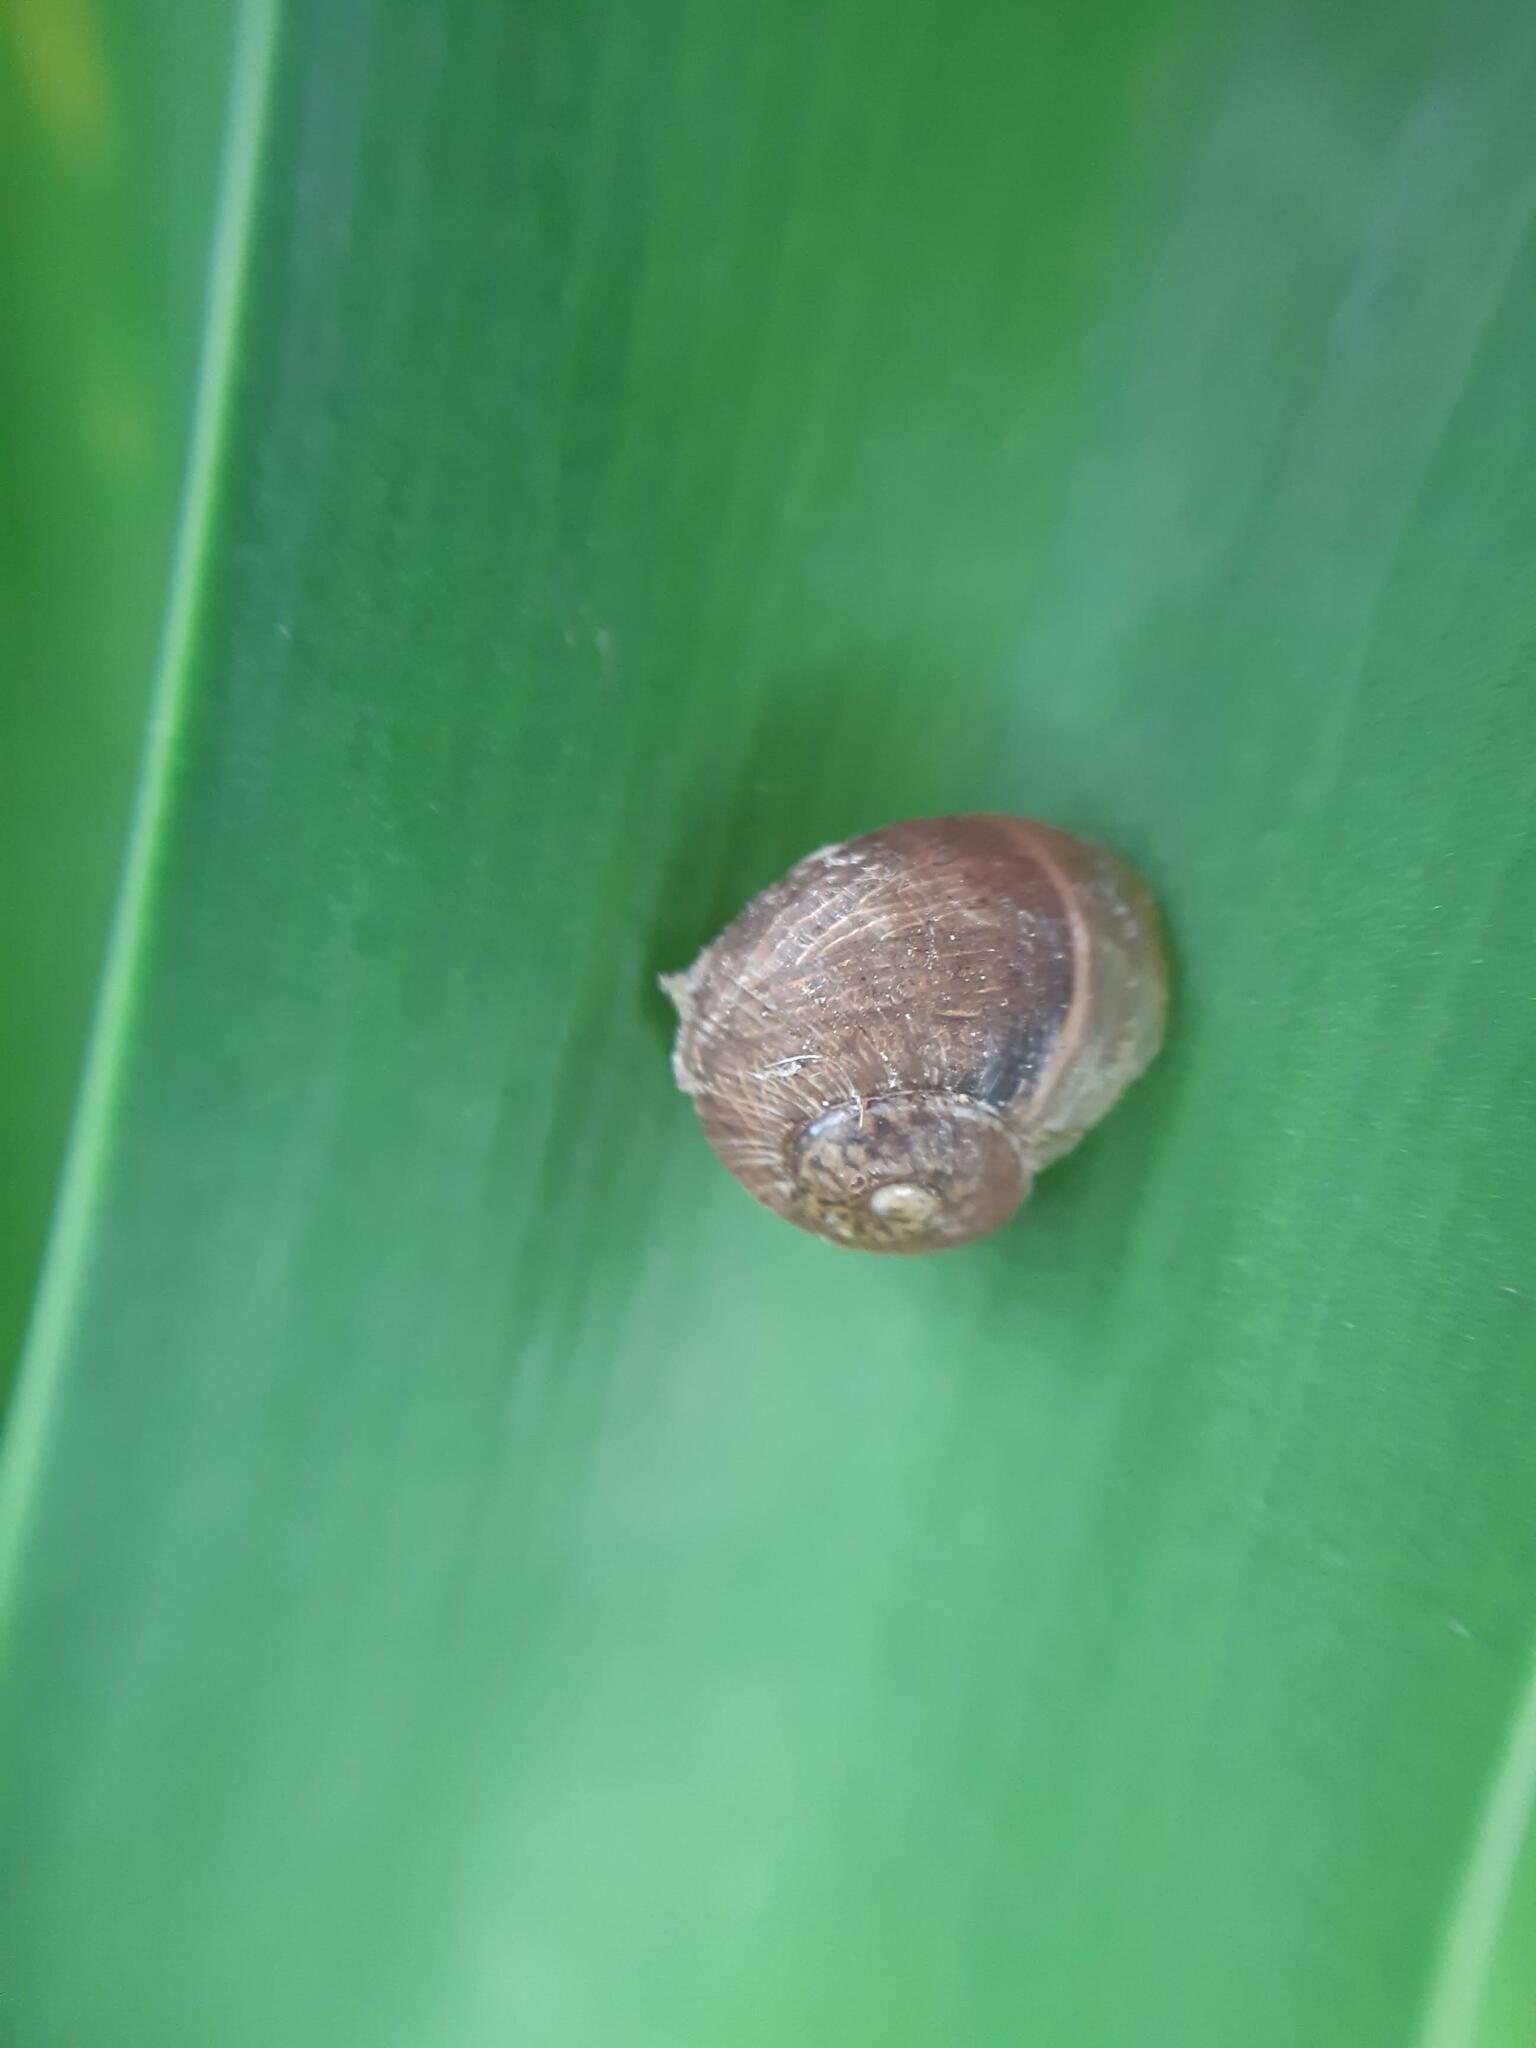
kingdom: Animalia
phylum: Mollusca
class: Gastropoda
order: Stylommatophora
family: Helicidae
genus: Cornu
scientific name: Cornu aspersum
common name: Brown garden snail
